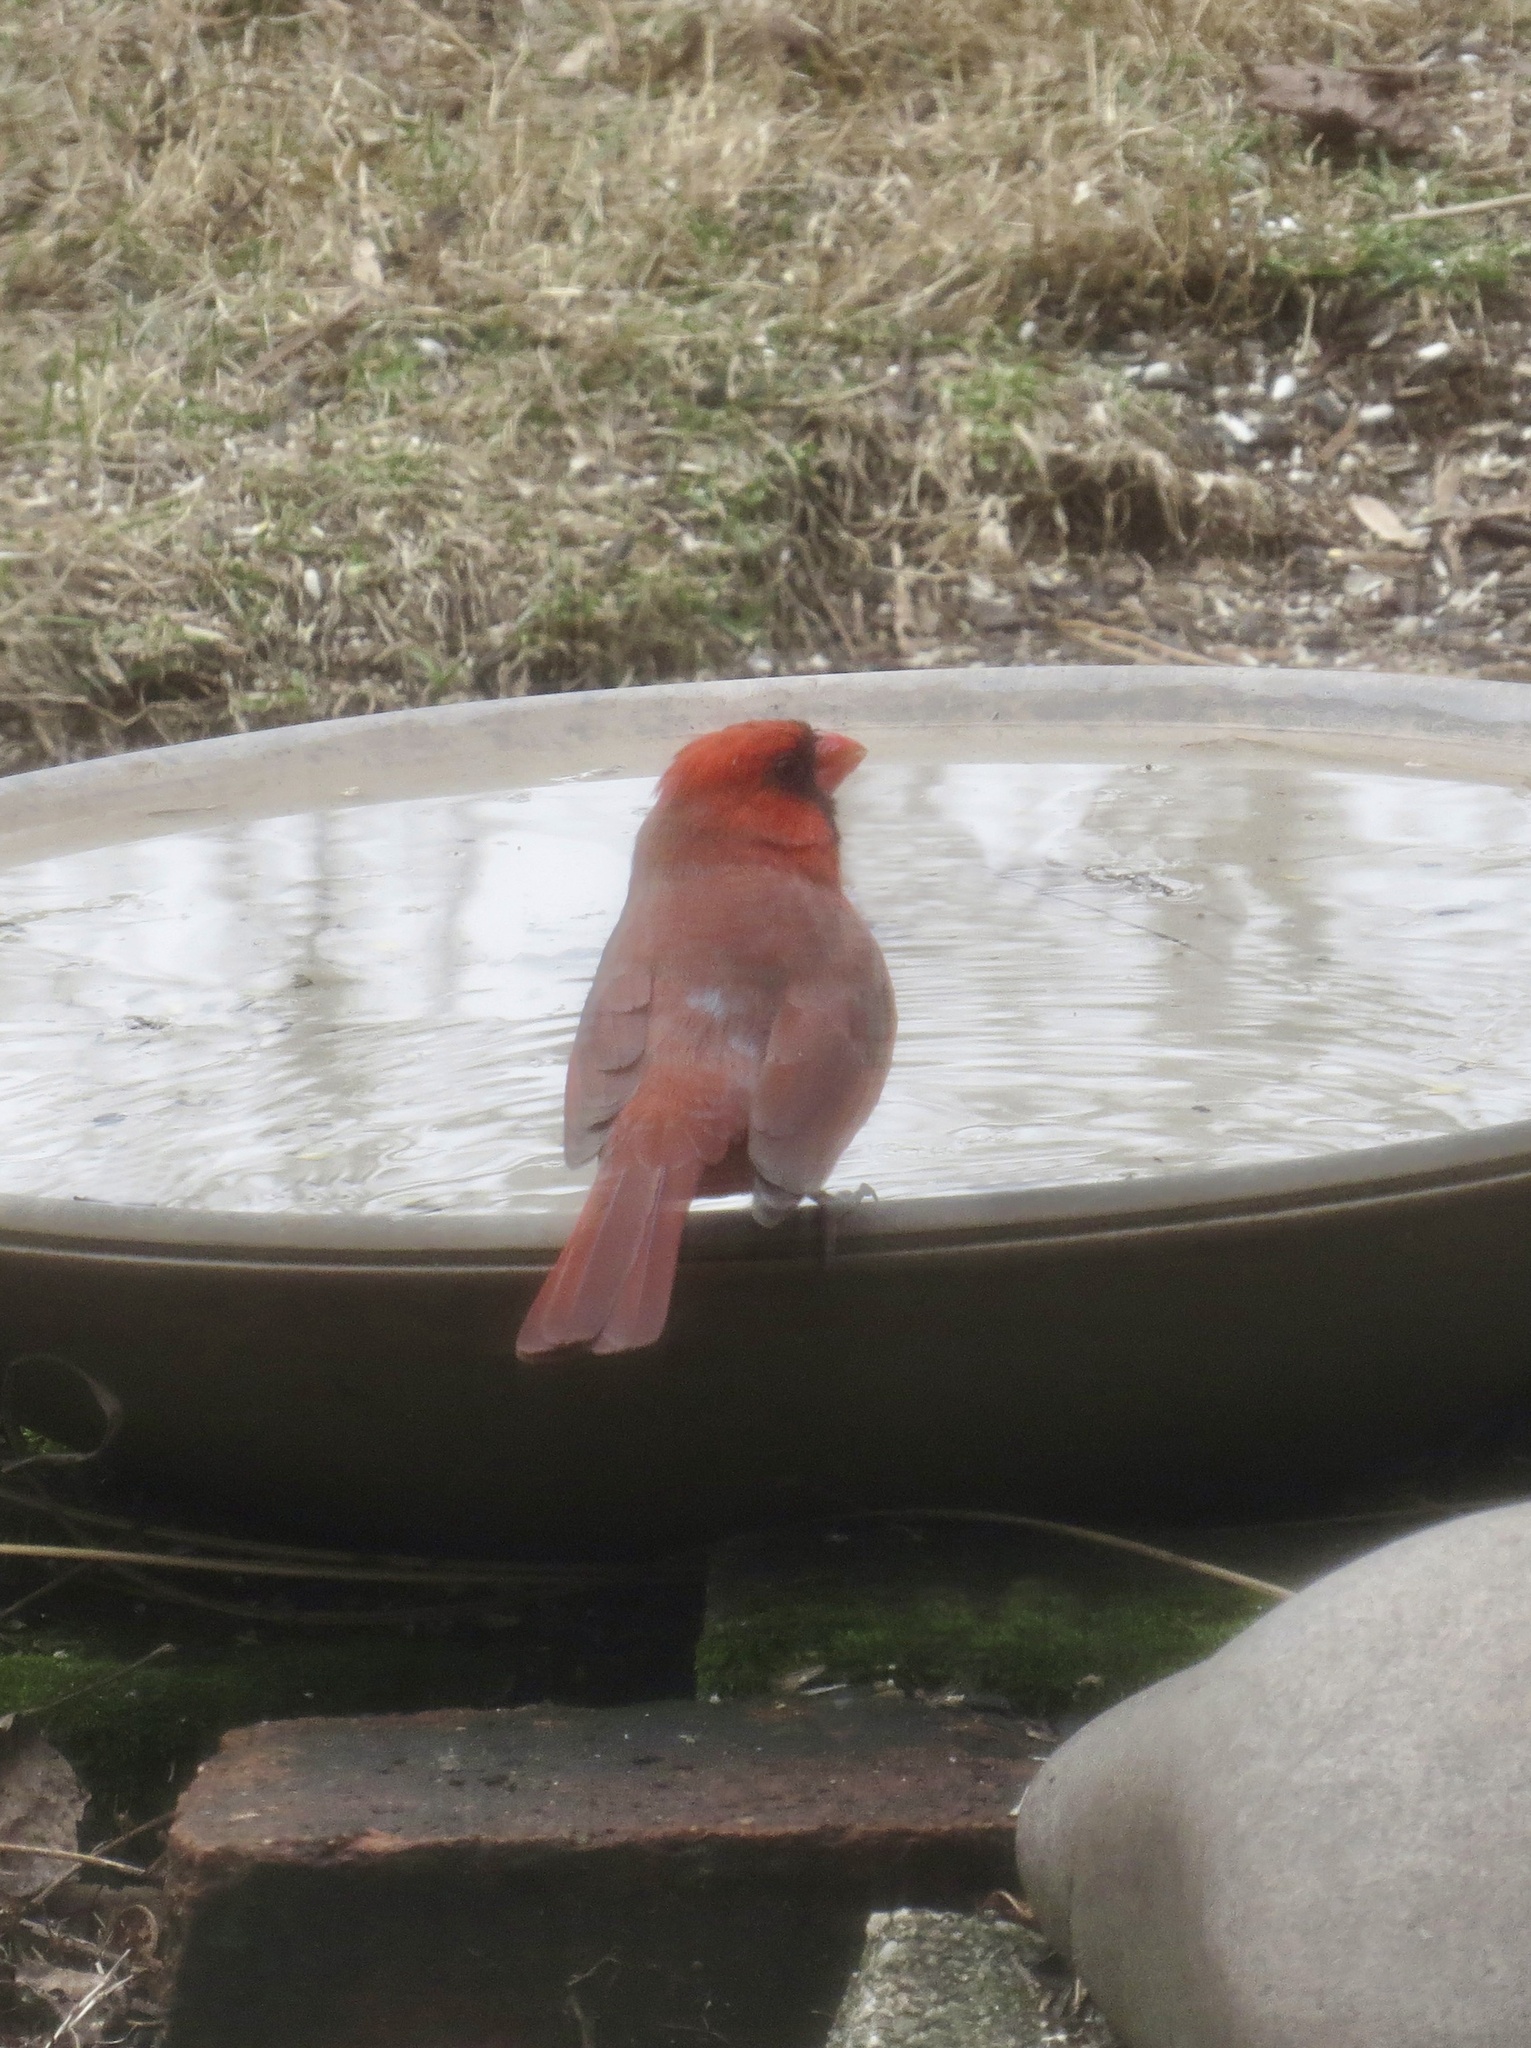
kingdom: Animalia
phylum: Chordata
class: Aves
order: Passeriformes
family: Cardinalidae
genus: Cardinalis
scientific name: Cardinalis cardinalis
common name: Northern cardinal
